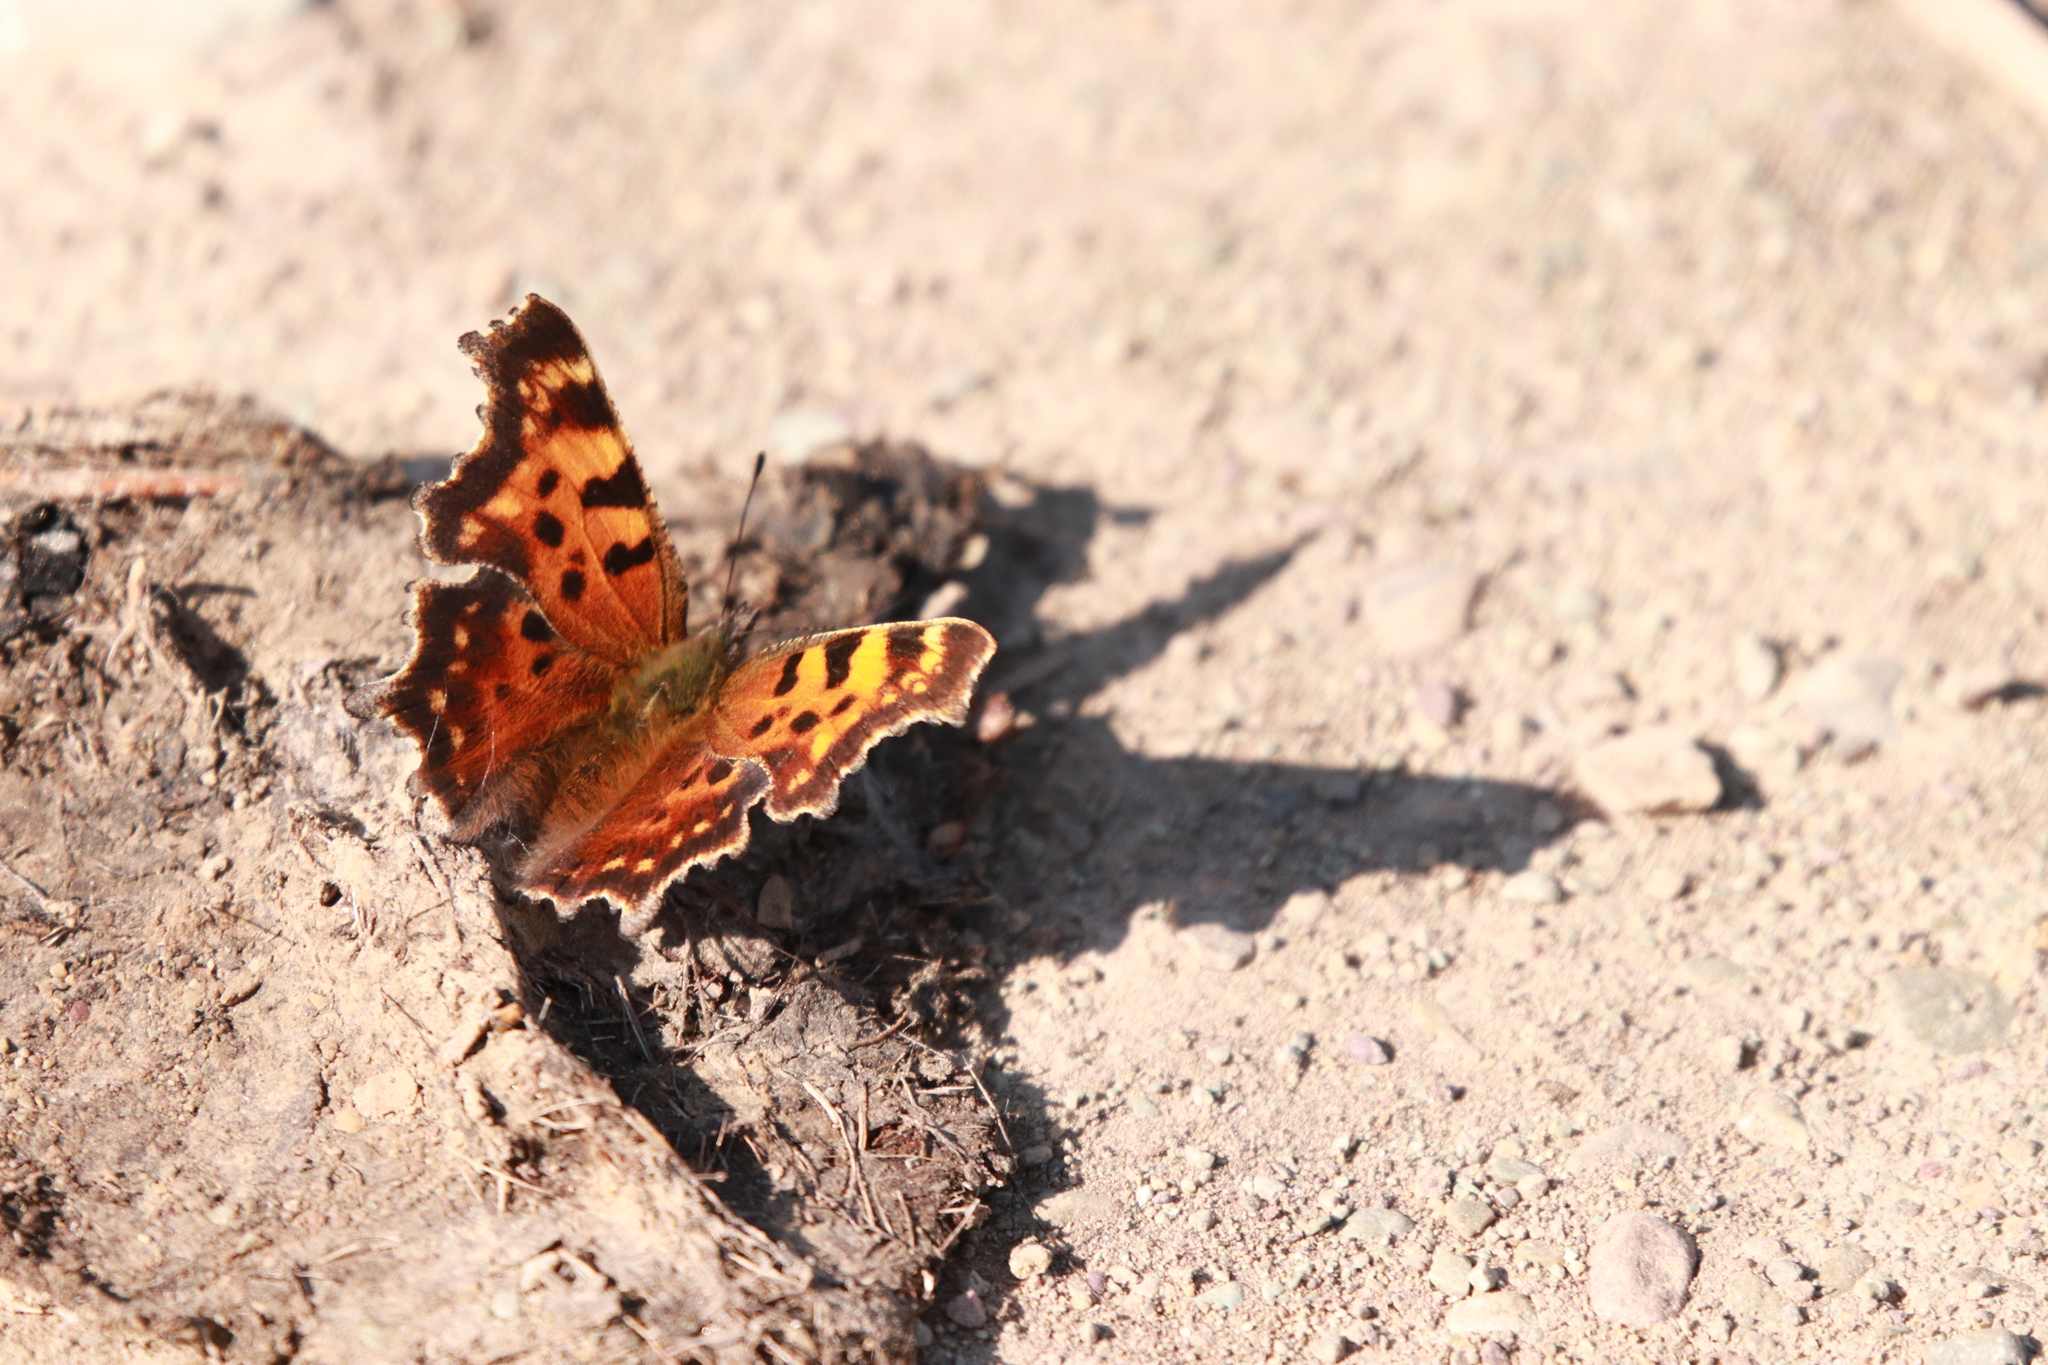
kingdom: Animalia
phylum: Arthropoda
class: Insecta
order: Lepidoptera
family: Nymphalidae
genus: Polygonia
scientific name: Polygonia faunus
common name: Green comma
